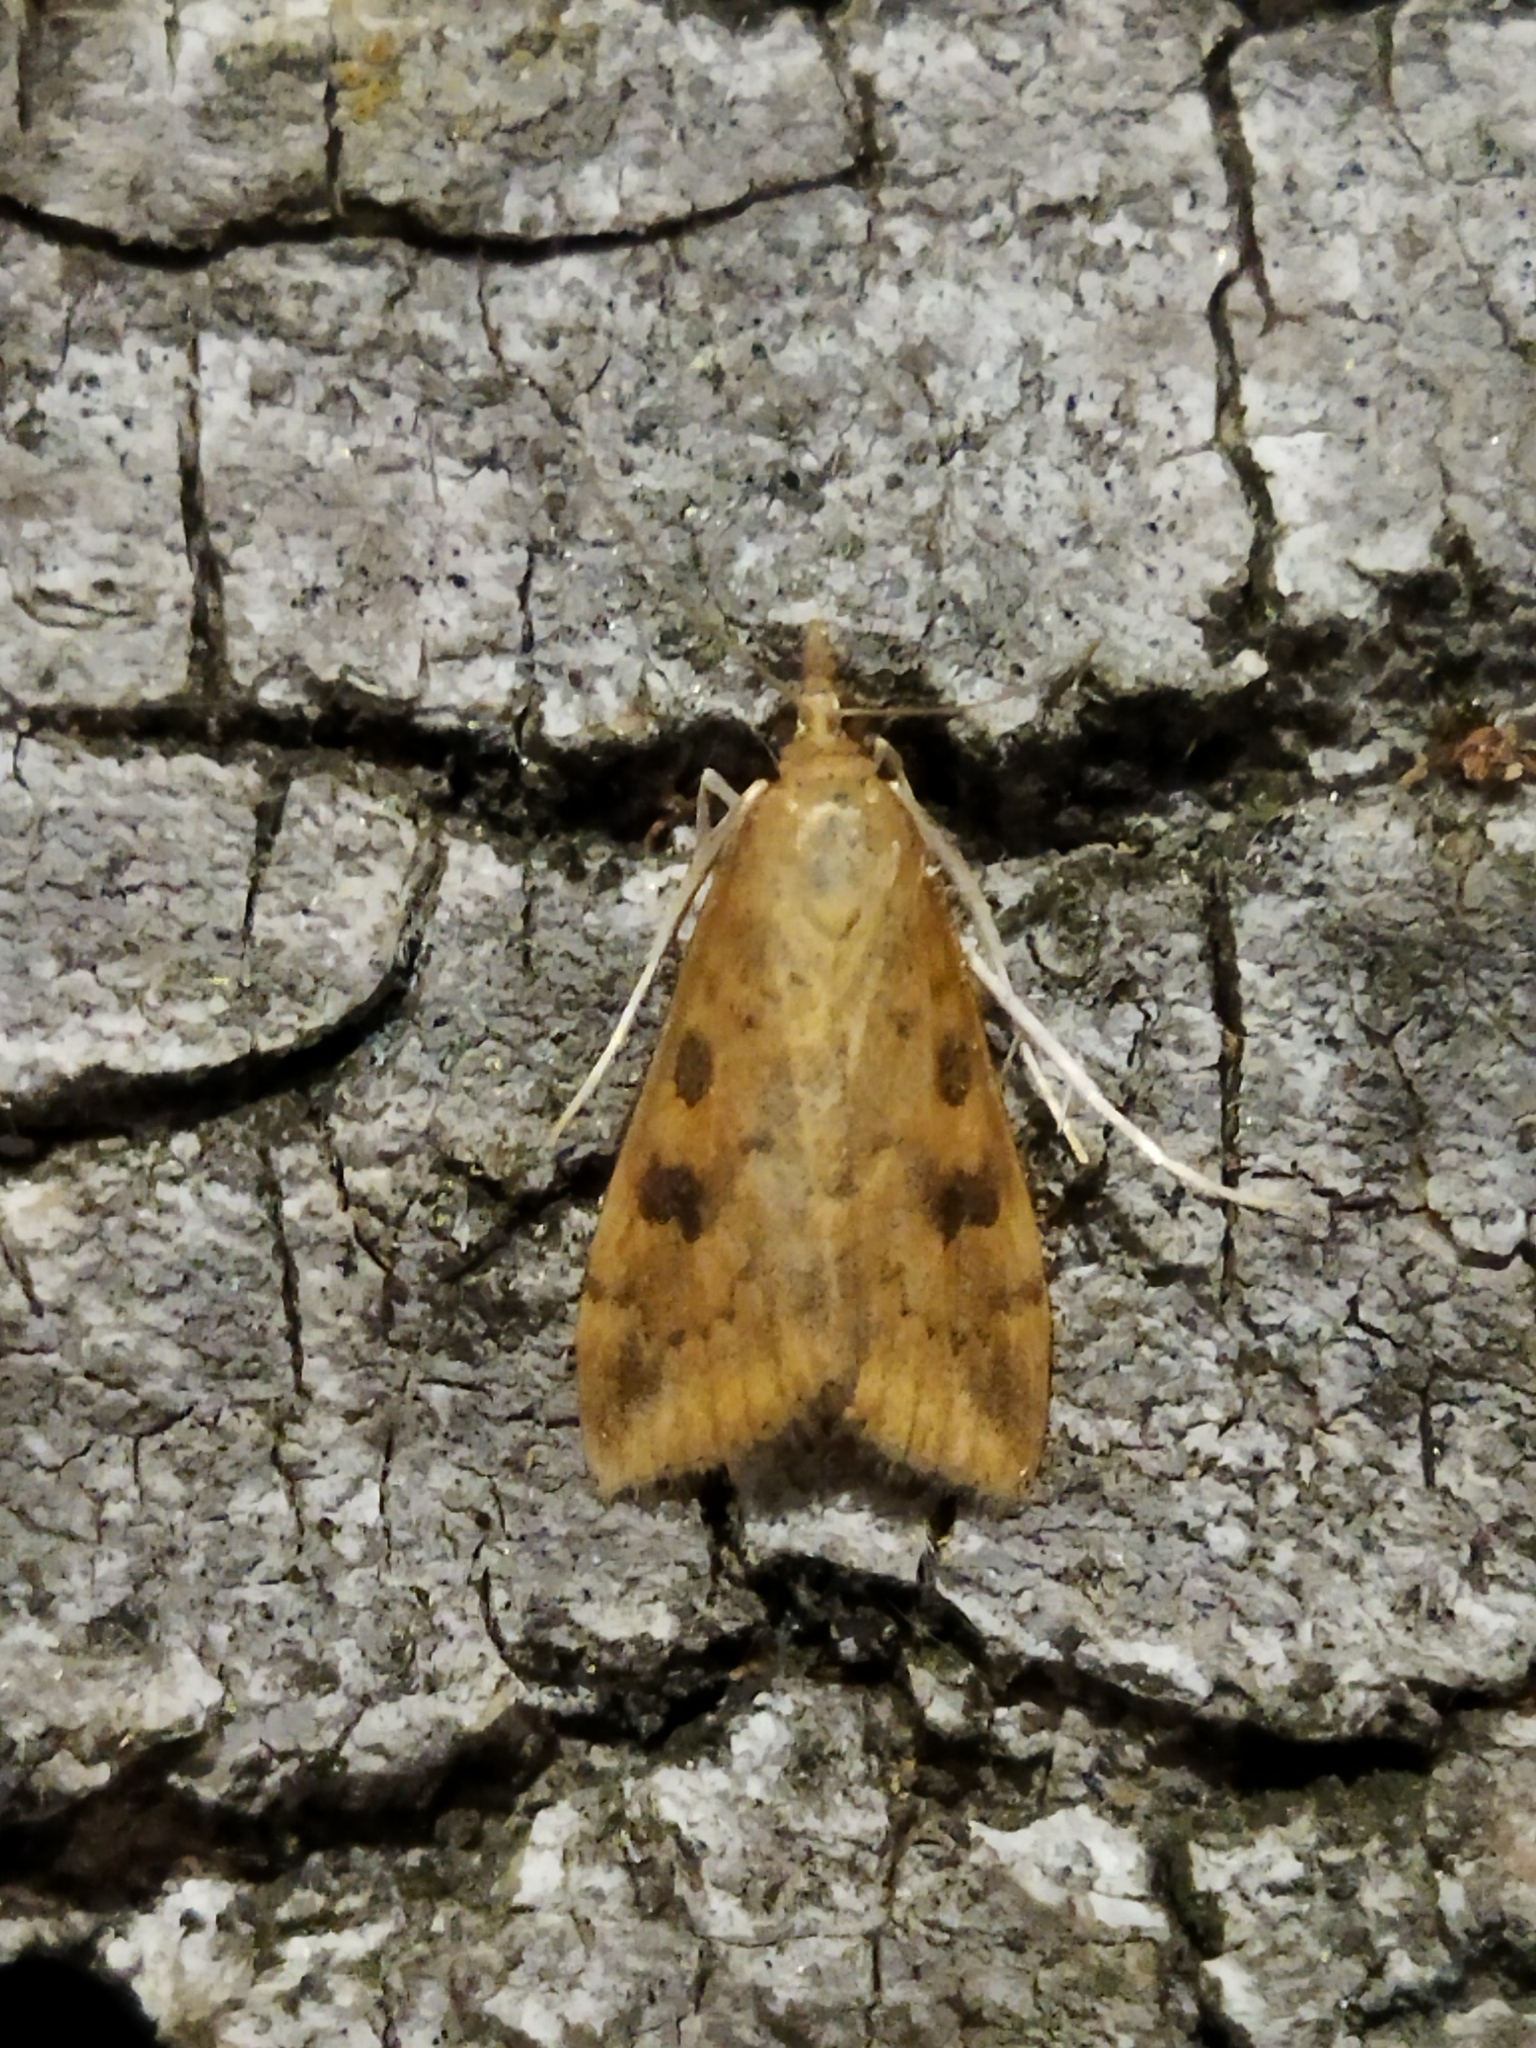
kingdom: Animalia
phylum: Arthropoda
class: Insecta
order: Lepidoptera
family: Crambidae
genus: Udea
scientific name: Udea ferrugalis
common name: Rusty dot
